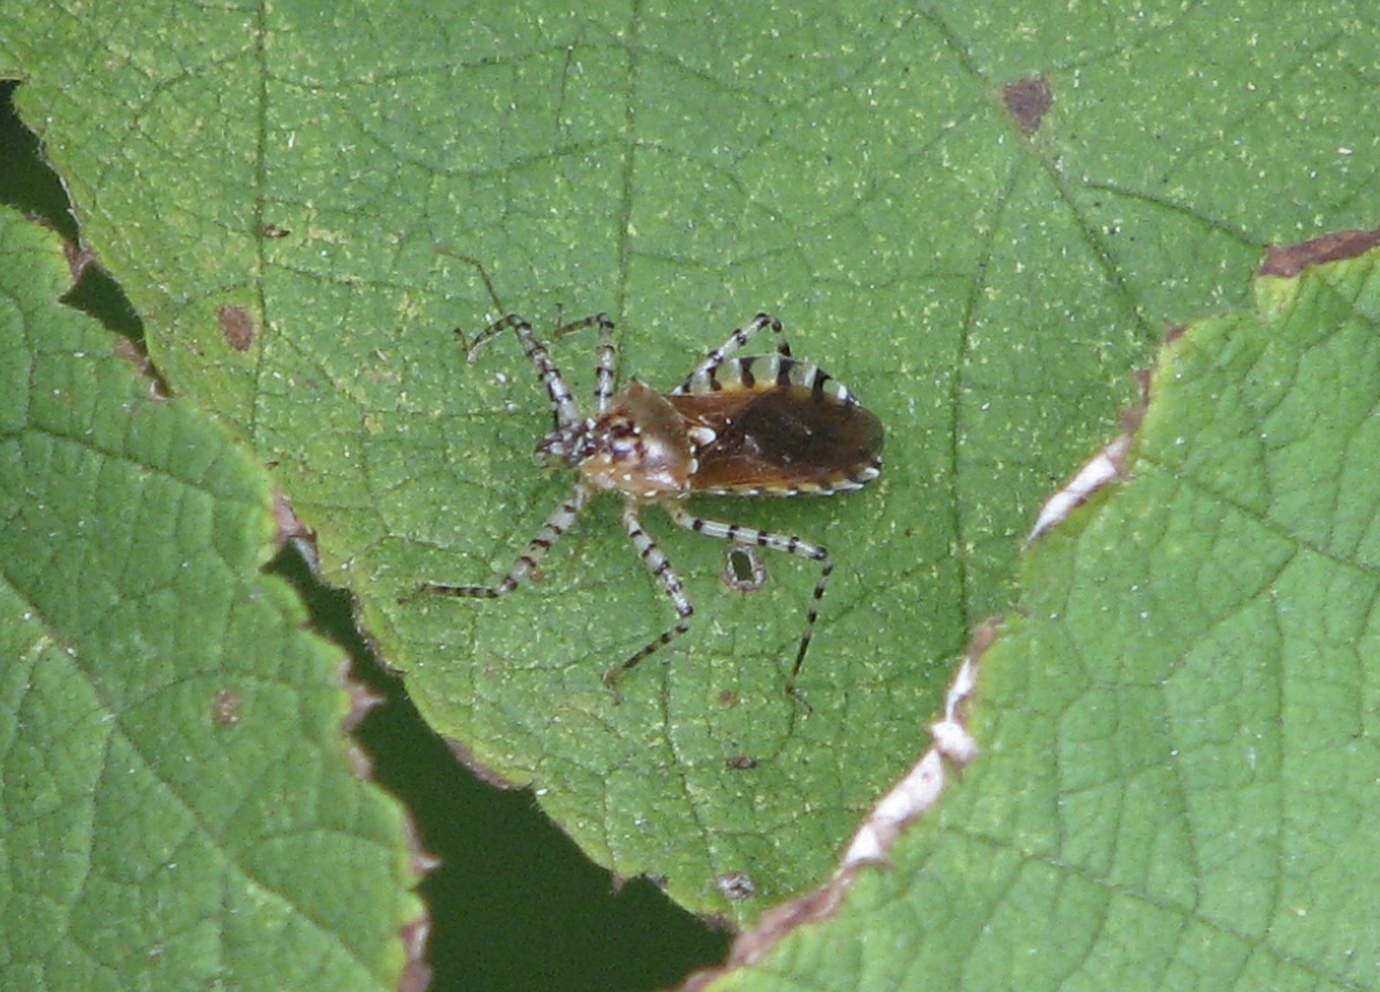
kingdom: Animalia
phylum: Arthropoda
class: Insecta
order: Hemiptera
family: Reduviidae
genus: Pselliopus
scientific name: Pselliopus cinctus
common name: Ringed assassin bug
